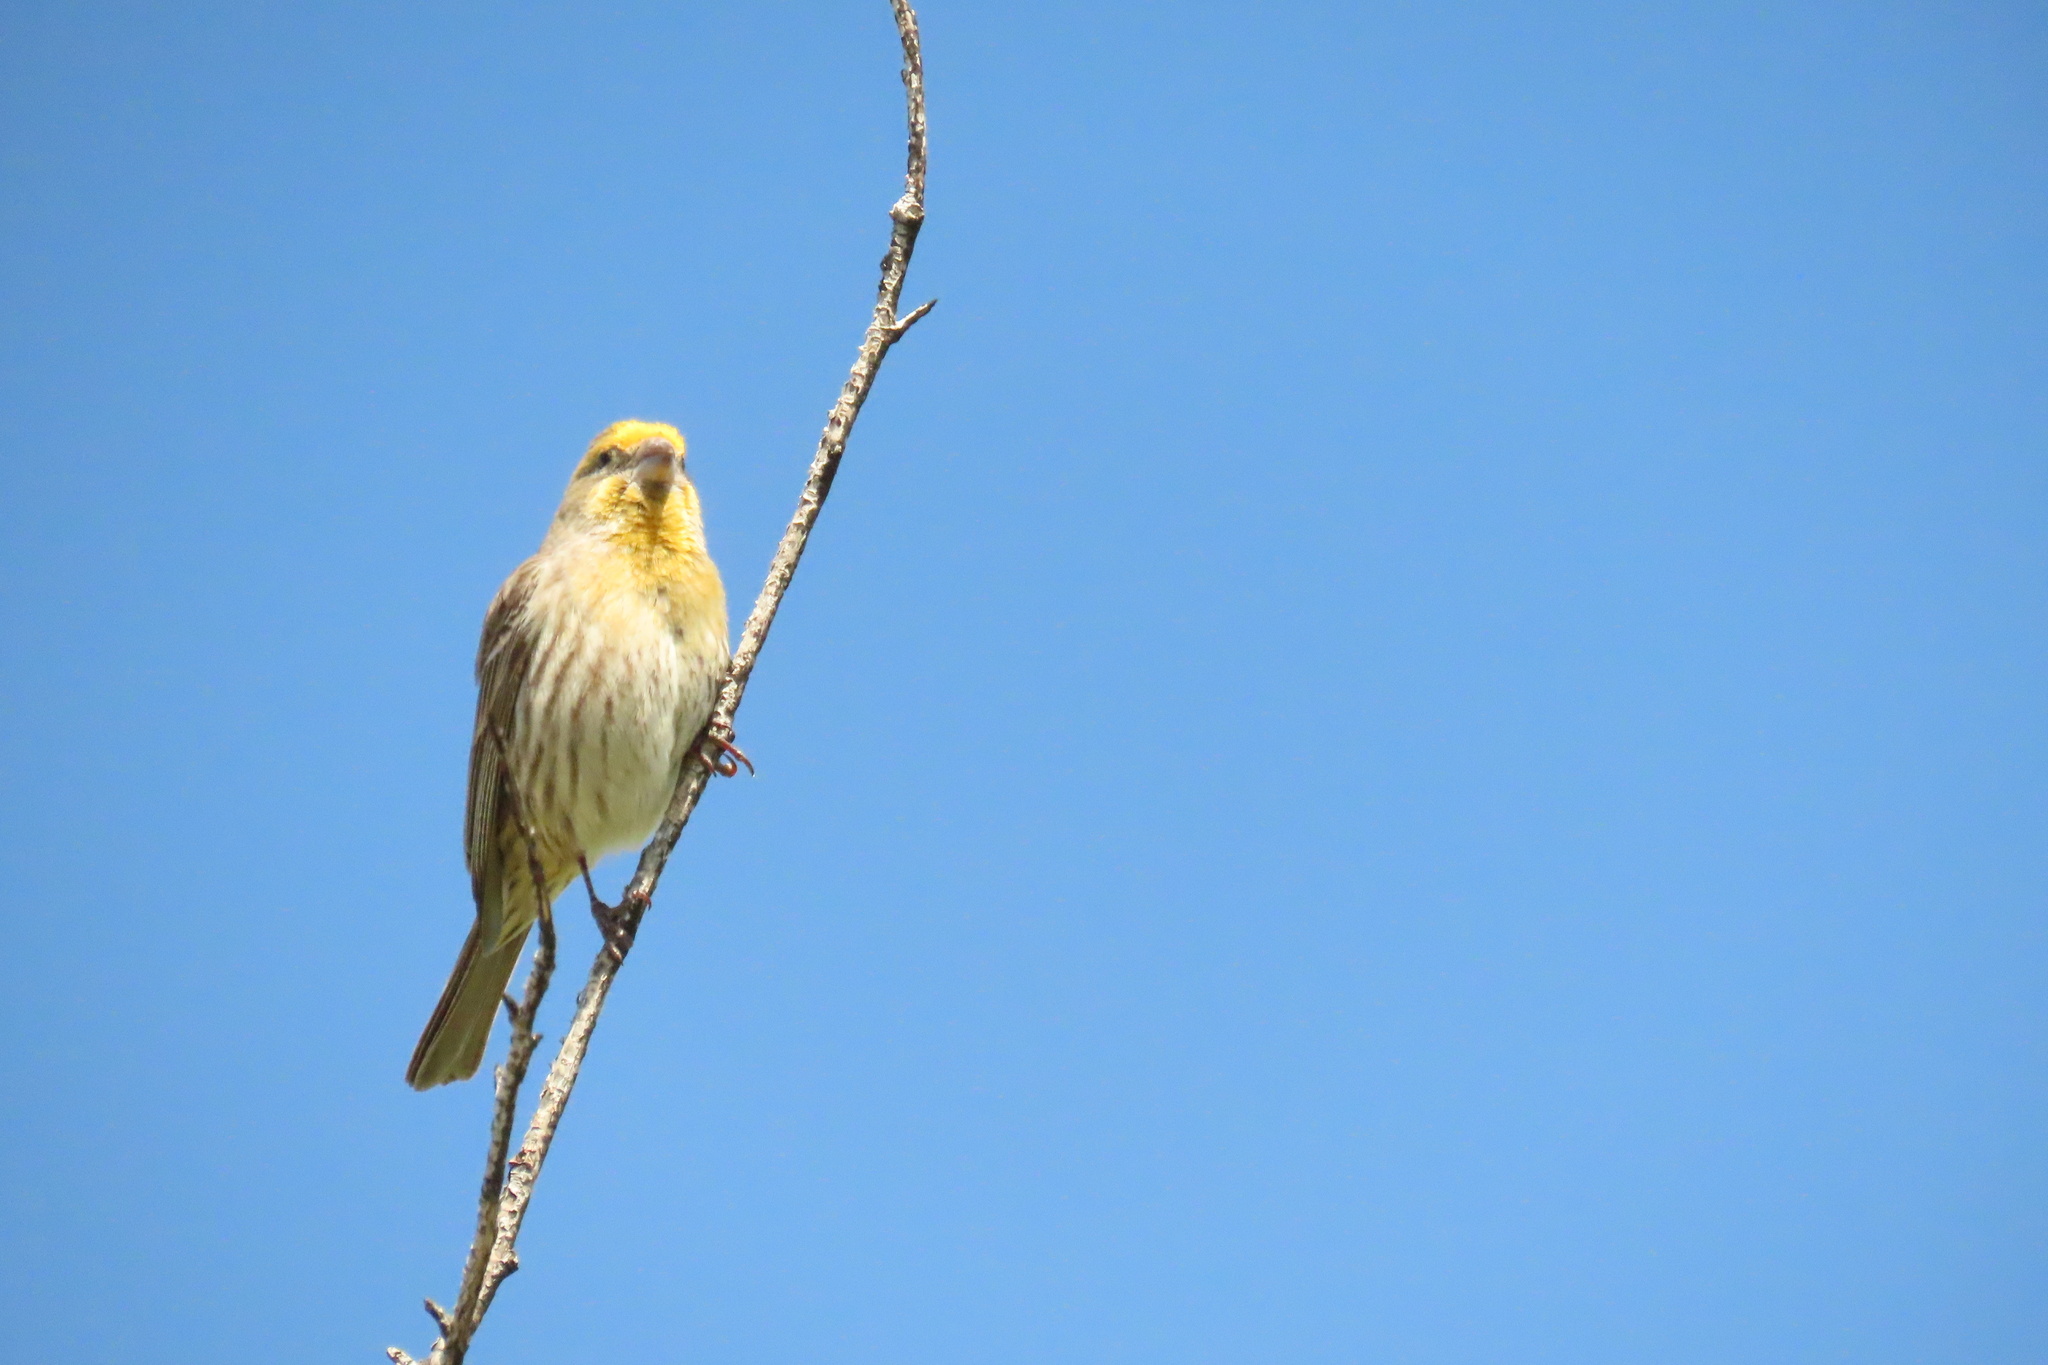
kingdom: Animalia
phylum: Chordata
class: Aves
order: Passeriformes
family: Fringillidae
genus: Haemorhous
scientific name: Haemorhous mexicanus
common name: House finch
